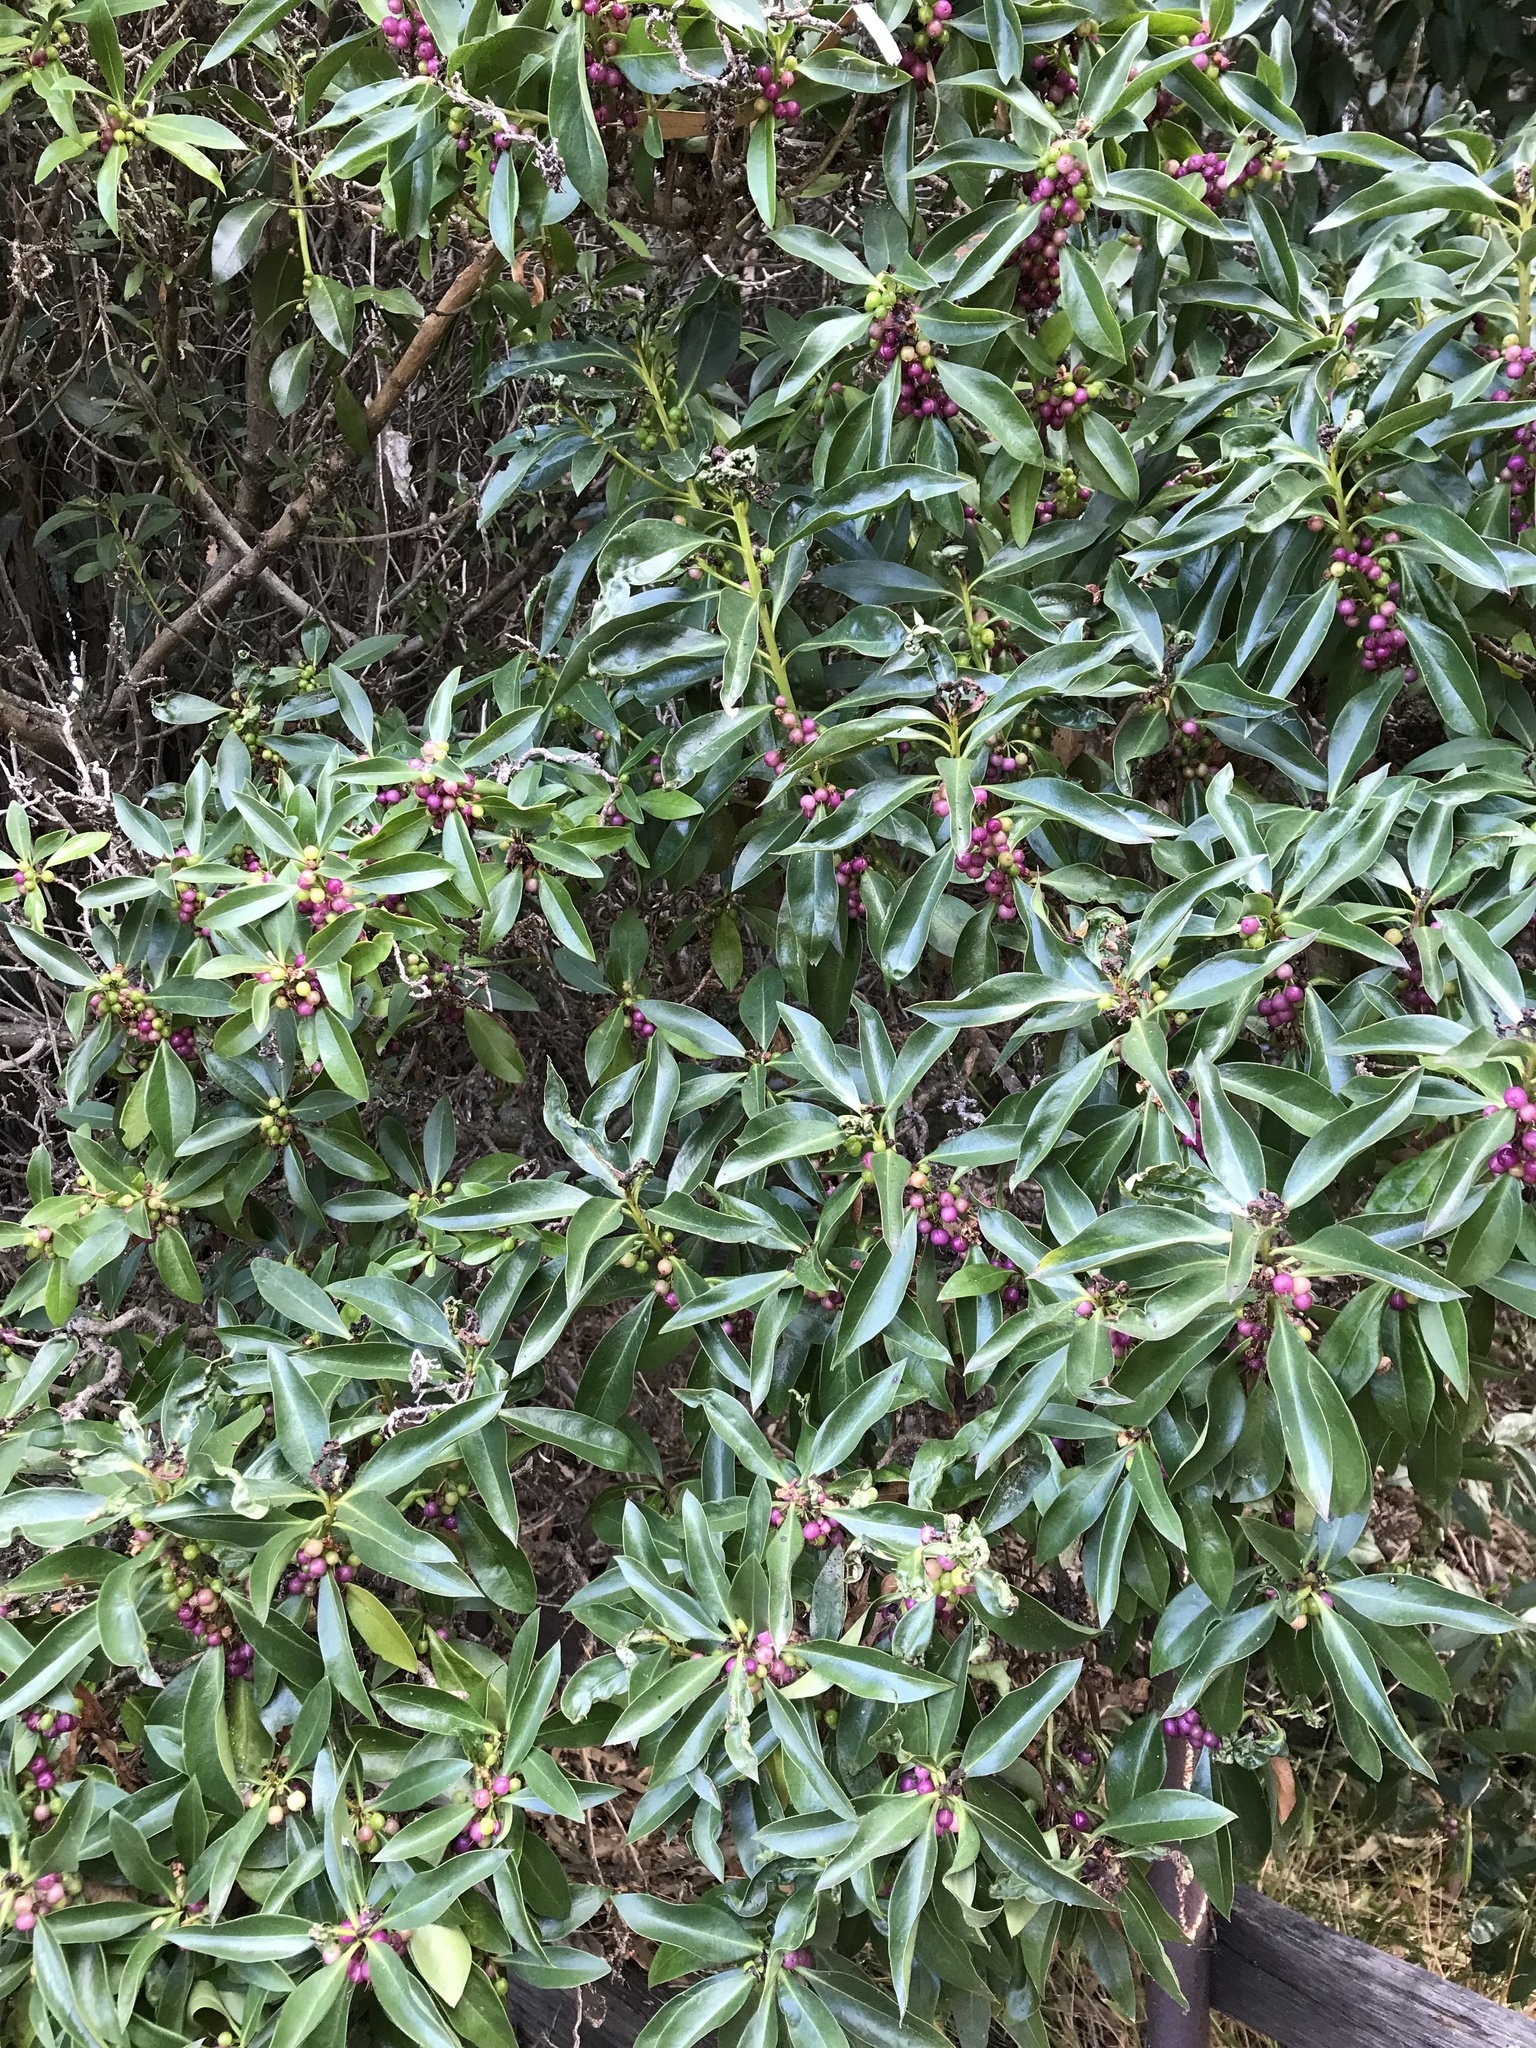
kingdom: Plantae
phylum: Tracheophyta
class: Magnoliopsida
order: Lamiales
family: Scrophulariaceae
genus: Myoporum
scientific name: Myoporum laetum
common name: Ngaio tree
